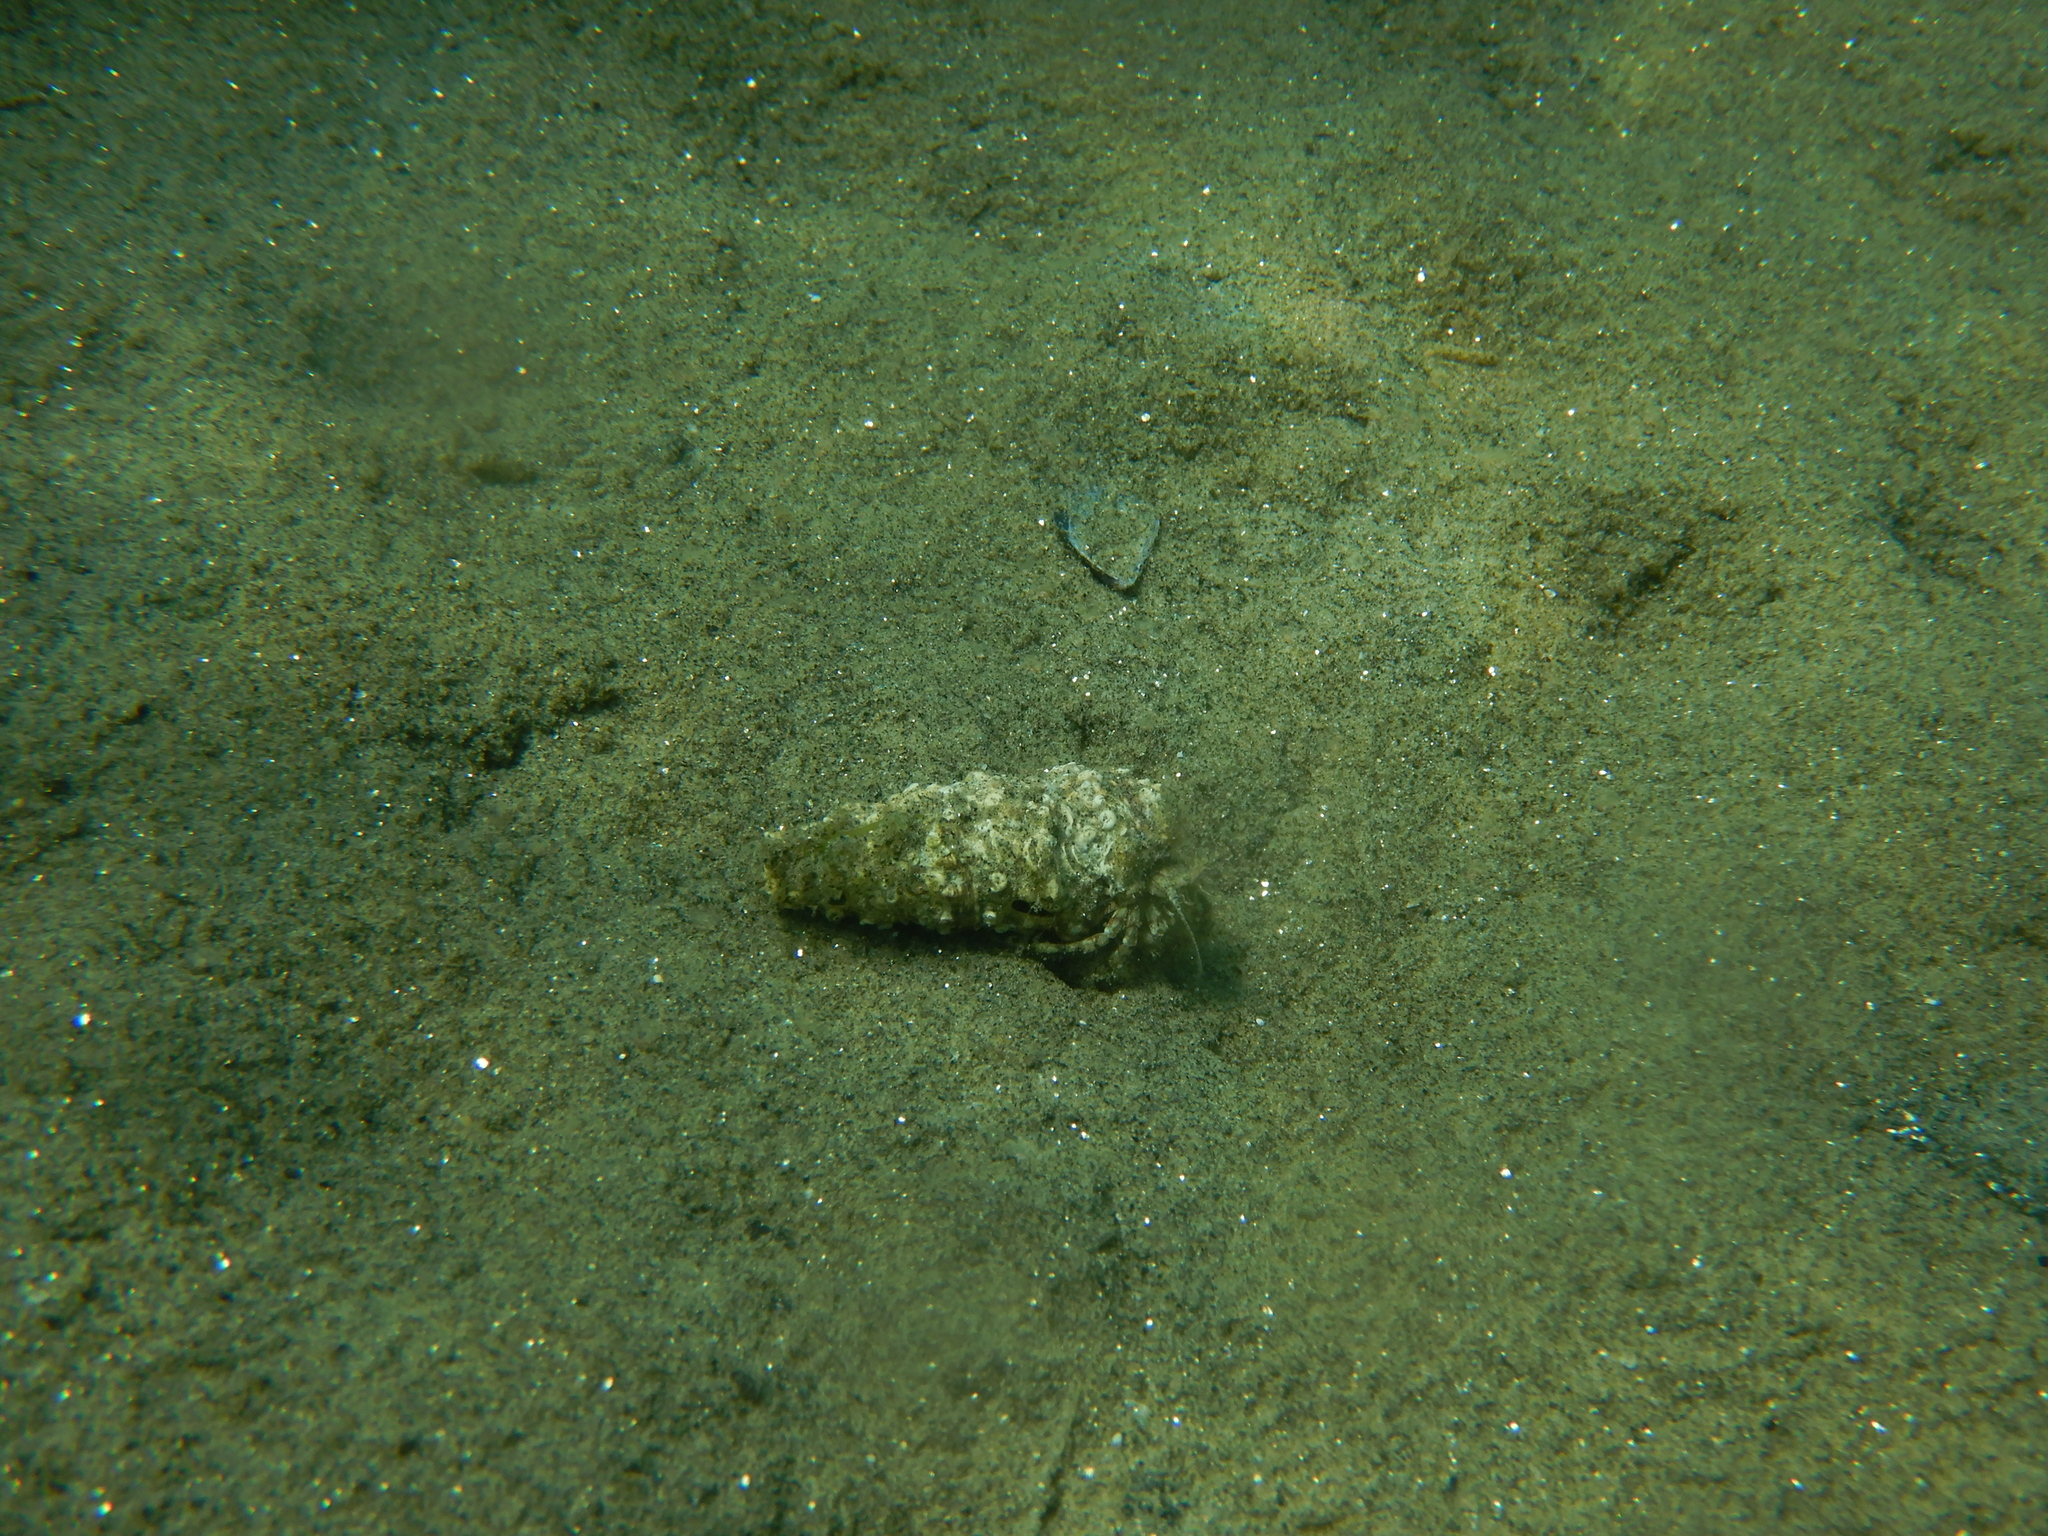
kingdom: Animalia
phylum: Mollusca
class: Gastropoda
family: Cerithiidae
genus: Cerithium
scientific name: Cerithium
